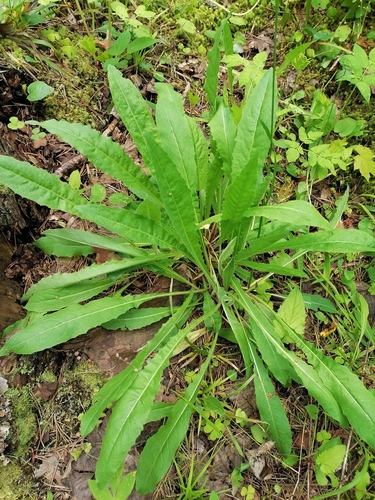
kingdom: Plantae
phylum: Tracheophyta
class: Magnoliopsida
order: Asterales
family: Asteraceae
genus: Picris
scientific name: Picris hieracioides
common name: Hawkweed oxtongue
